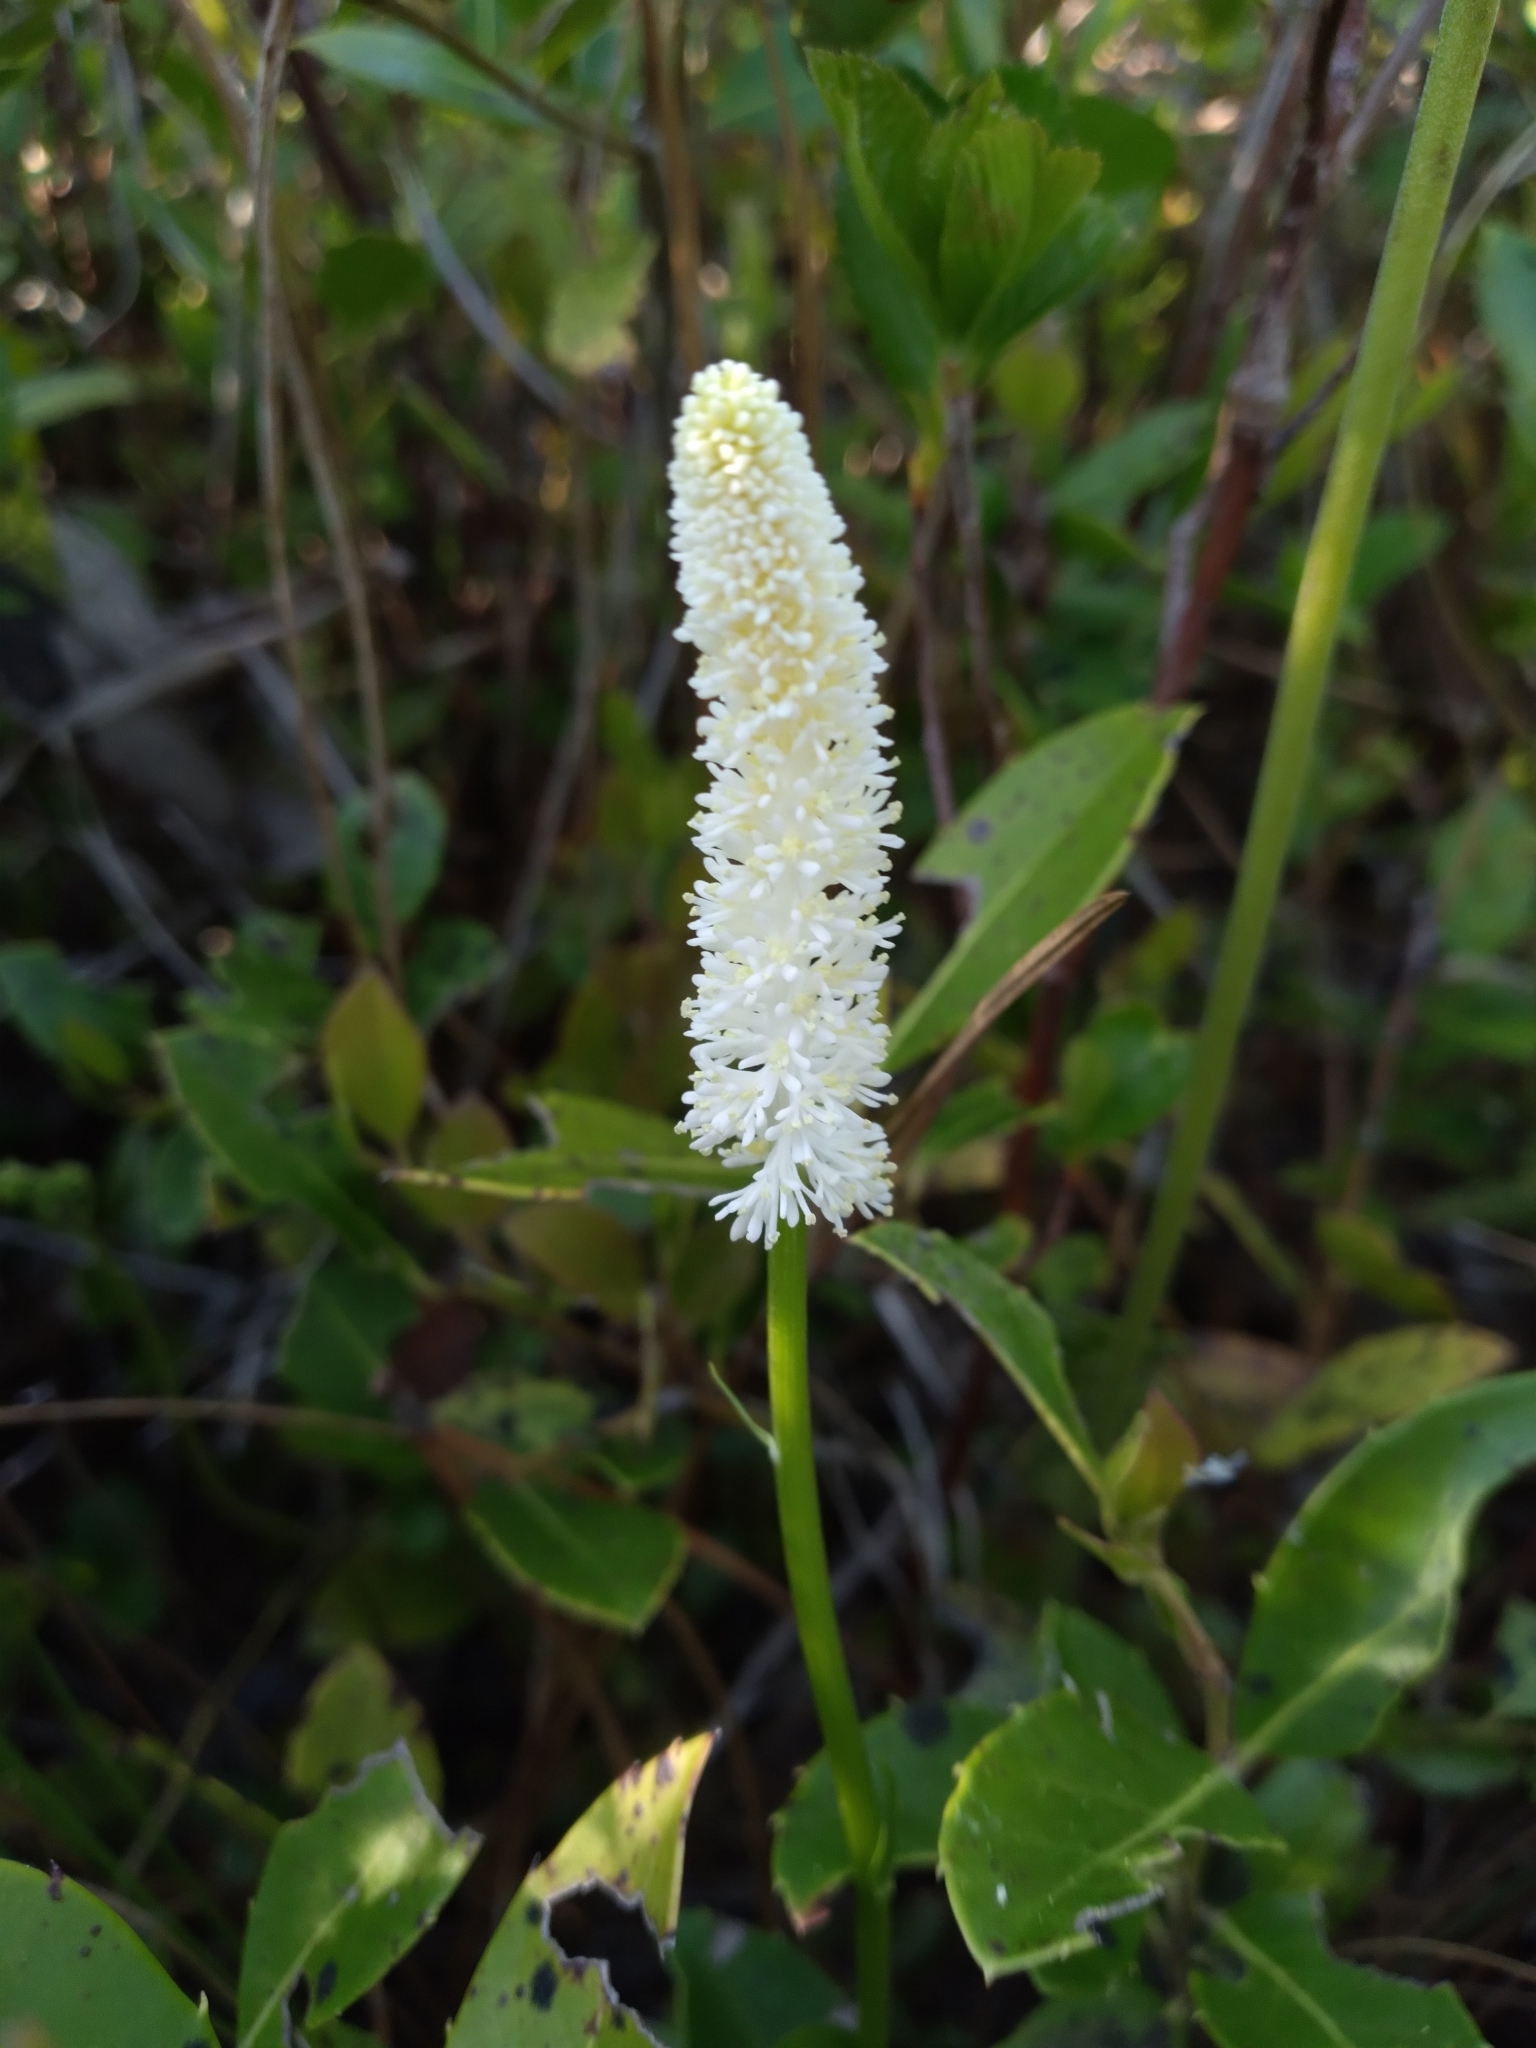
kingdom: Plantae
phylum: Tracheophyta
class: Liliopsida
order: Liliales
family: Melanthiaceae
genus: Chamaelirium
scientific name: Chamaelirium luteum
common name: Fairy-wand
